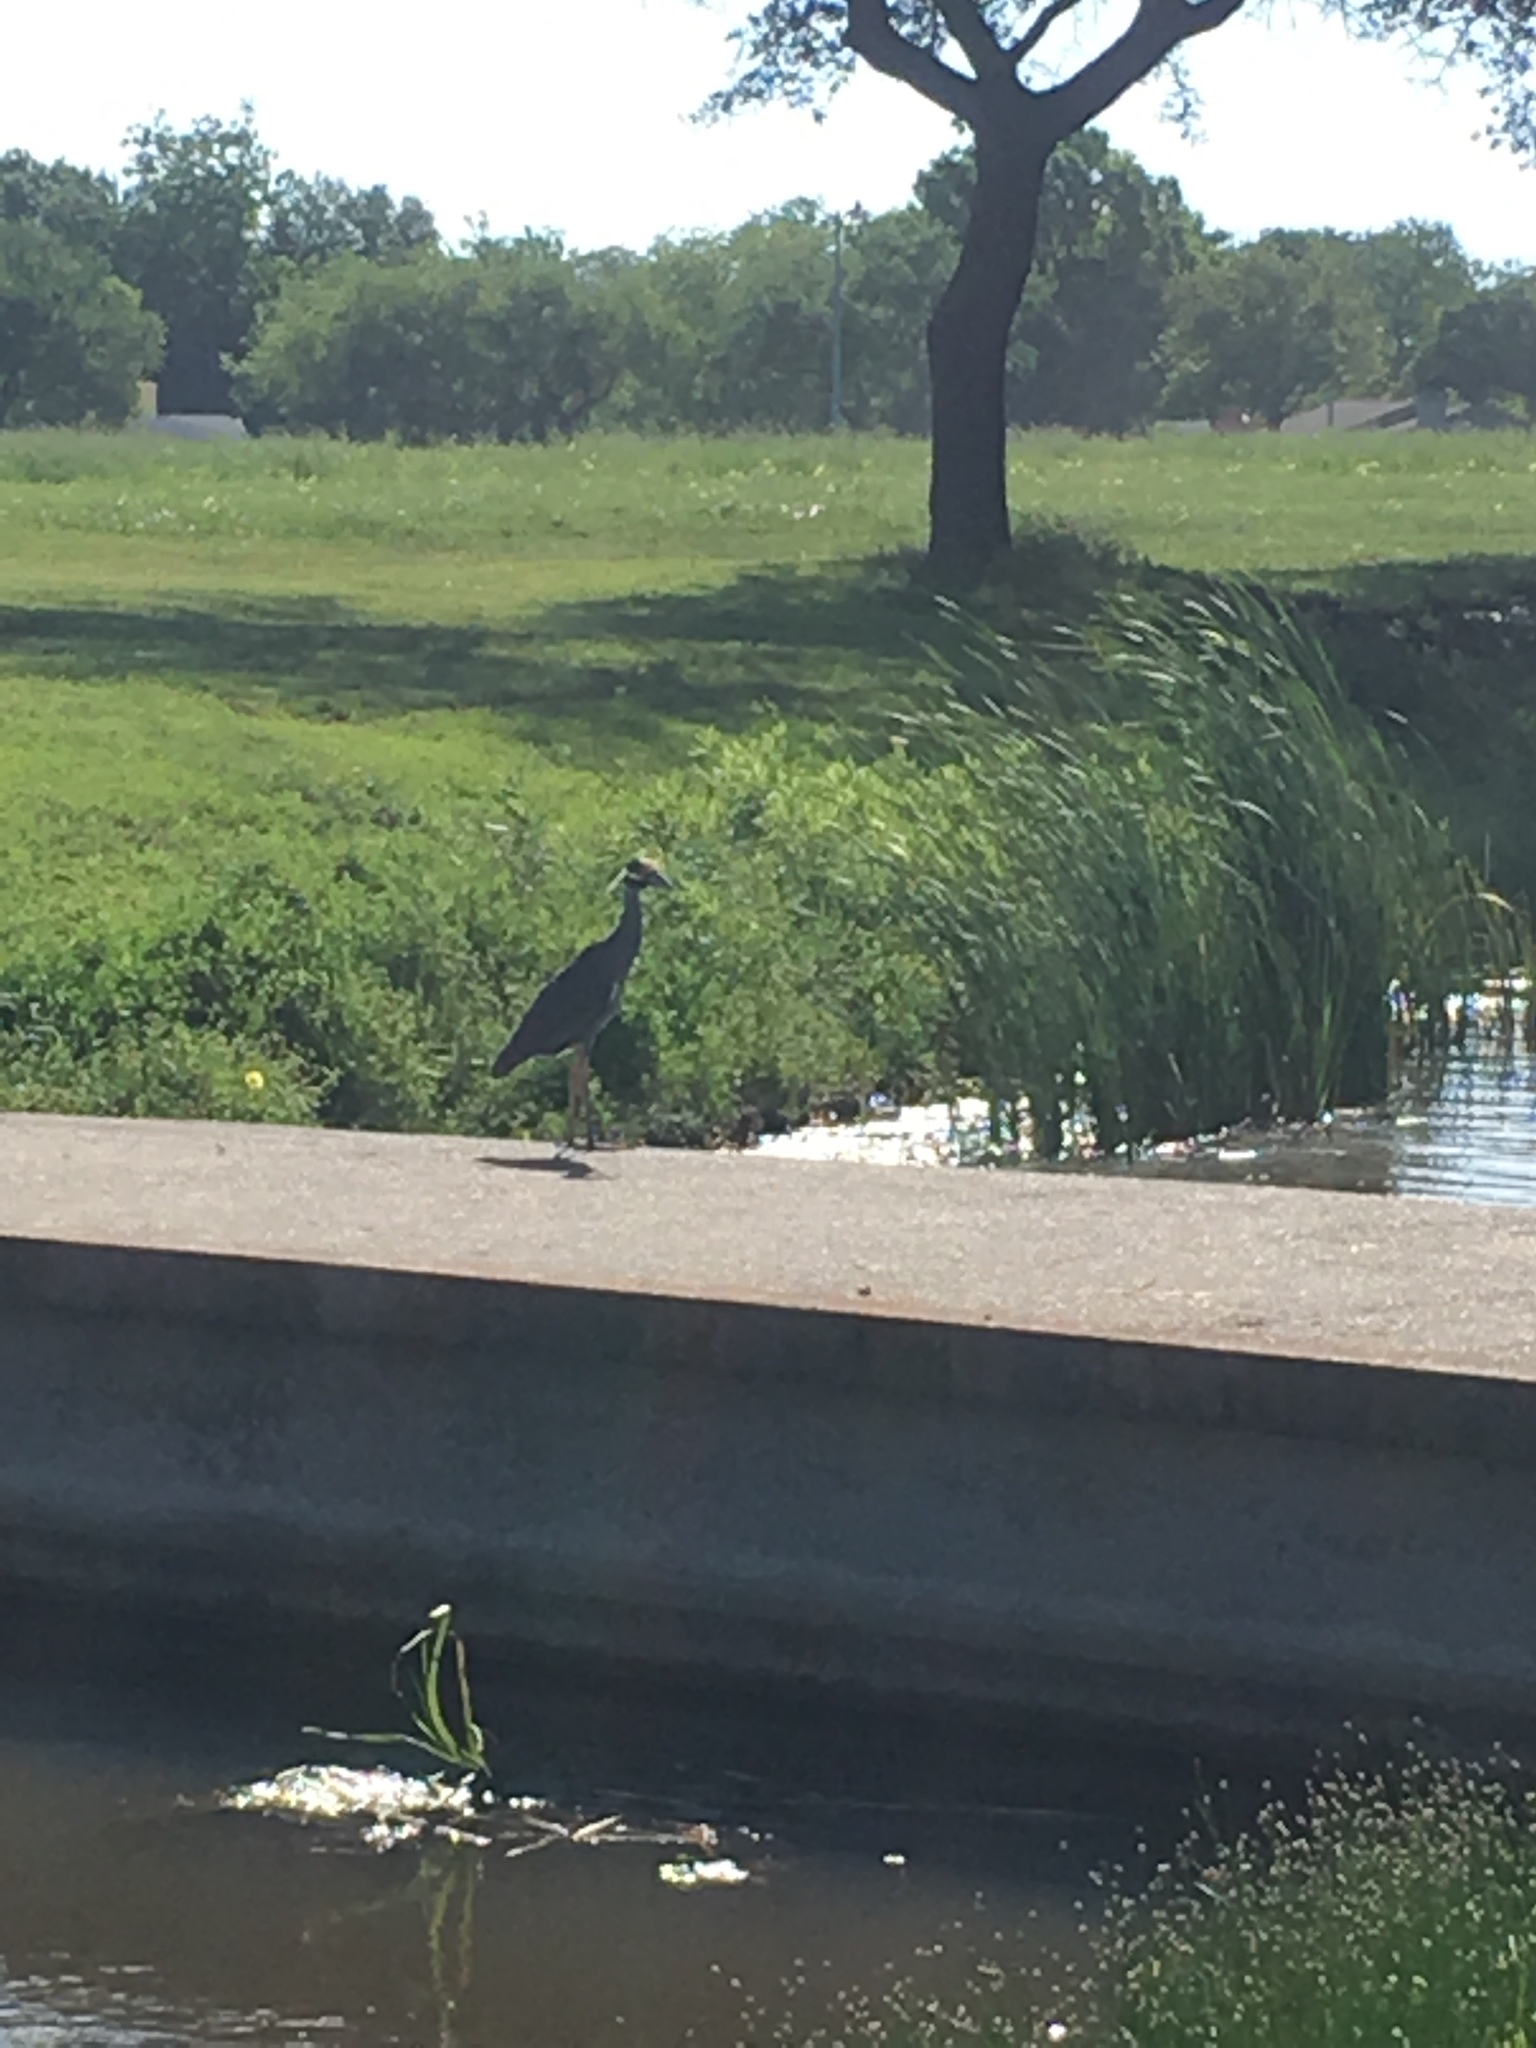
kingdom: Animalia
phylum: Chordata
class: Aves
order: Pelecaniformes
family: Ardeidae
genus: Nyctanassa
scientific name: Nyctanassa violacea
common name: Yellow-crowned night heron
